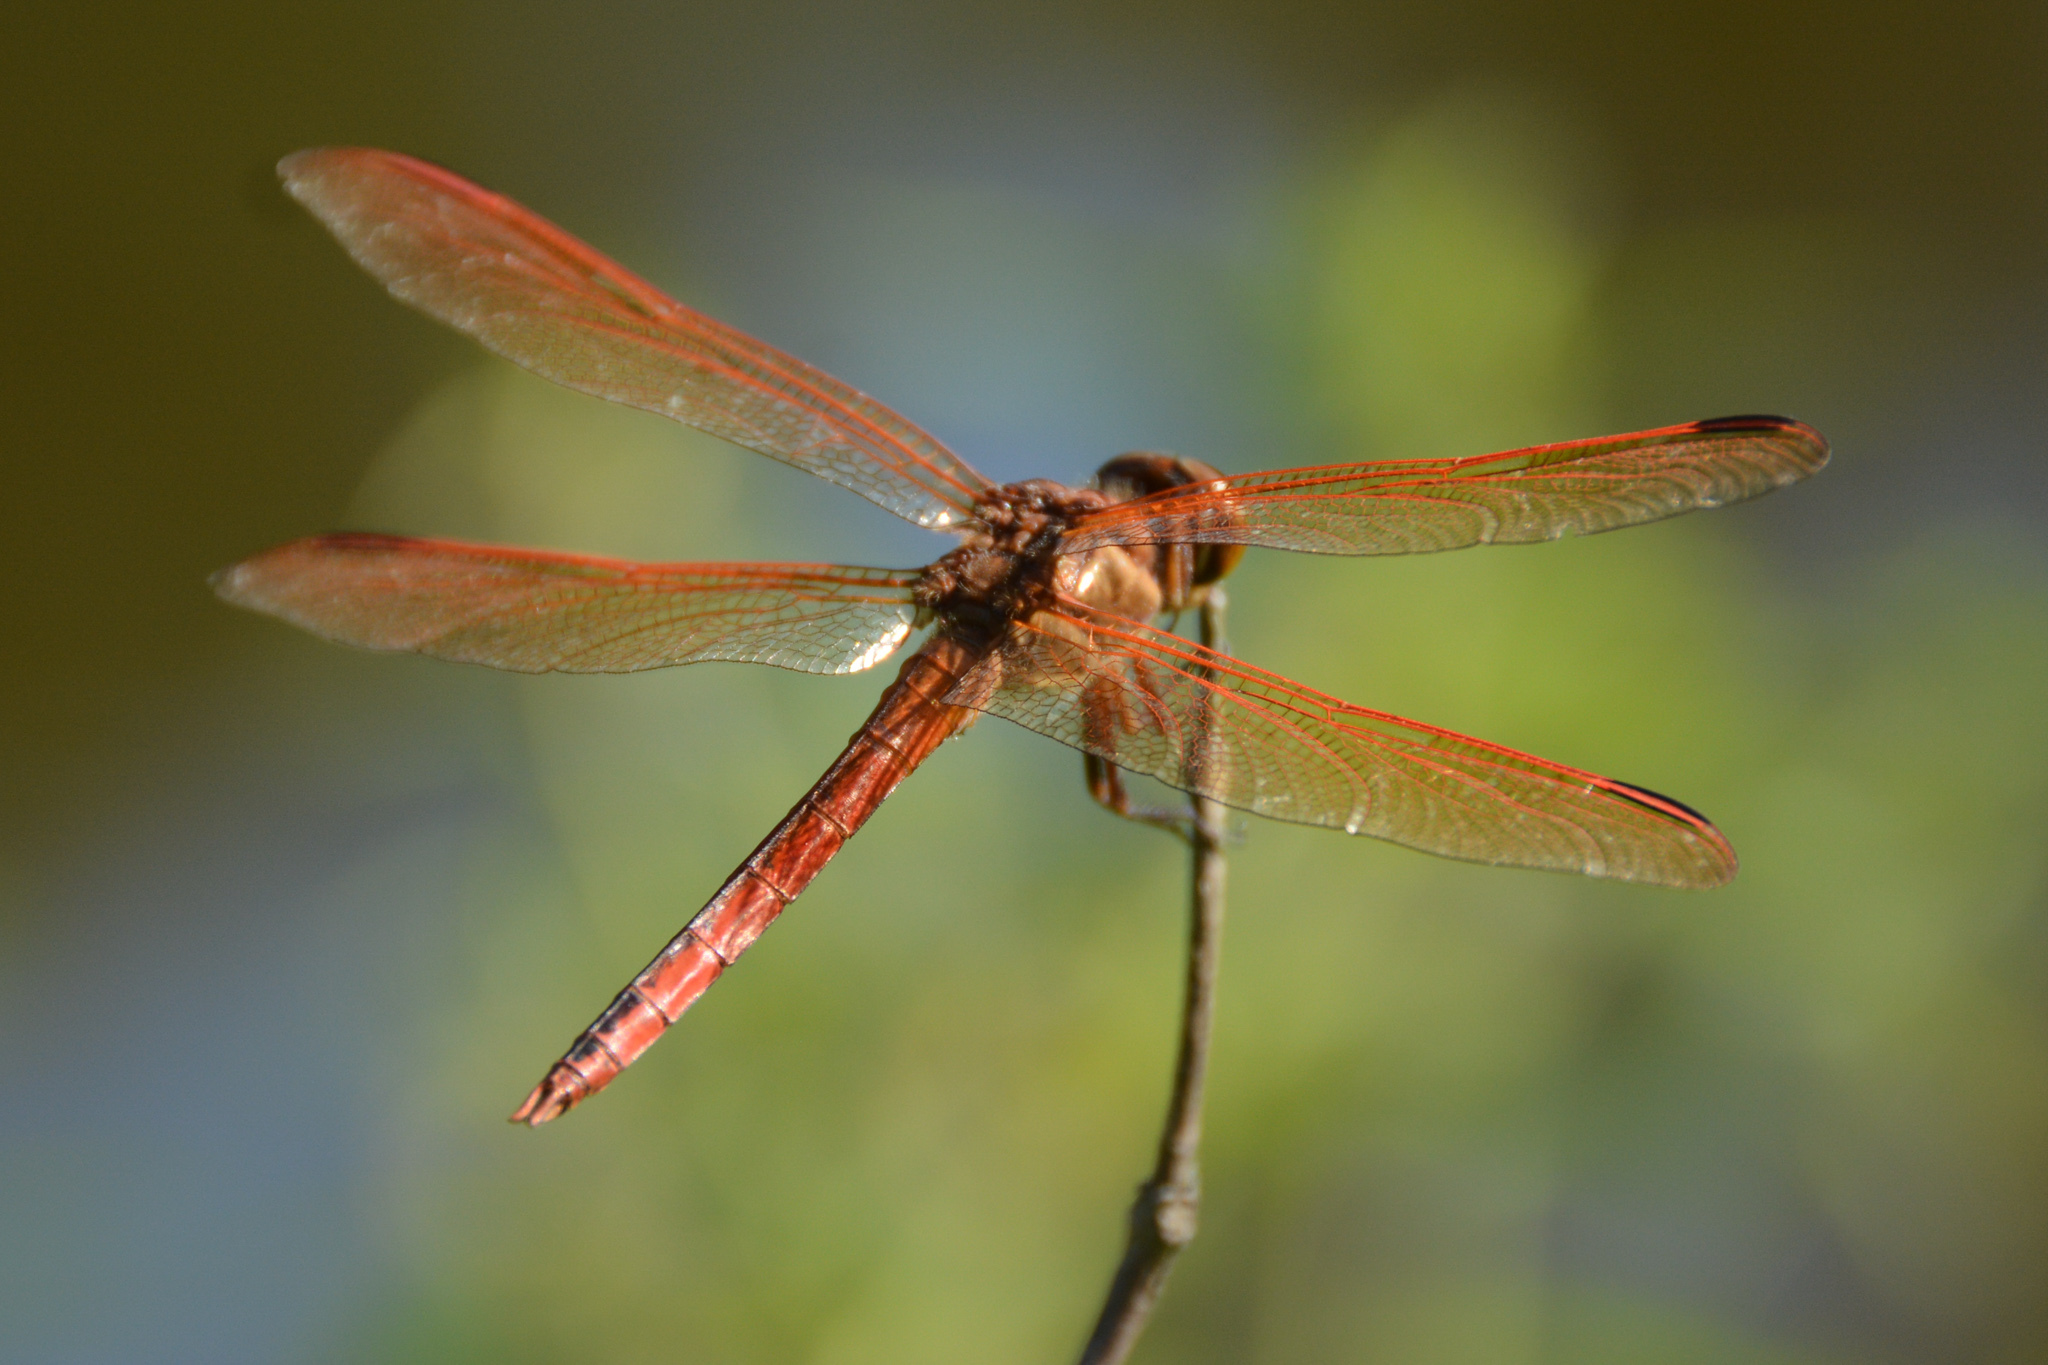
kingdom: Animalia
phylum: Arthropoda
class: Insecta
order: Odonata
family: Libellulidae
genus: Libellula
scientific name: Libellula auripennis
